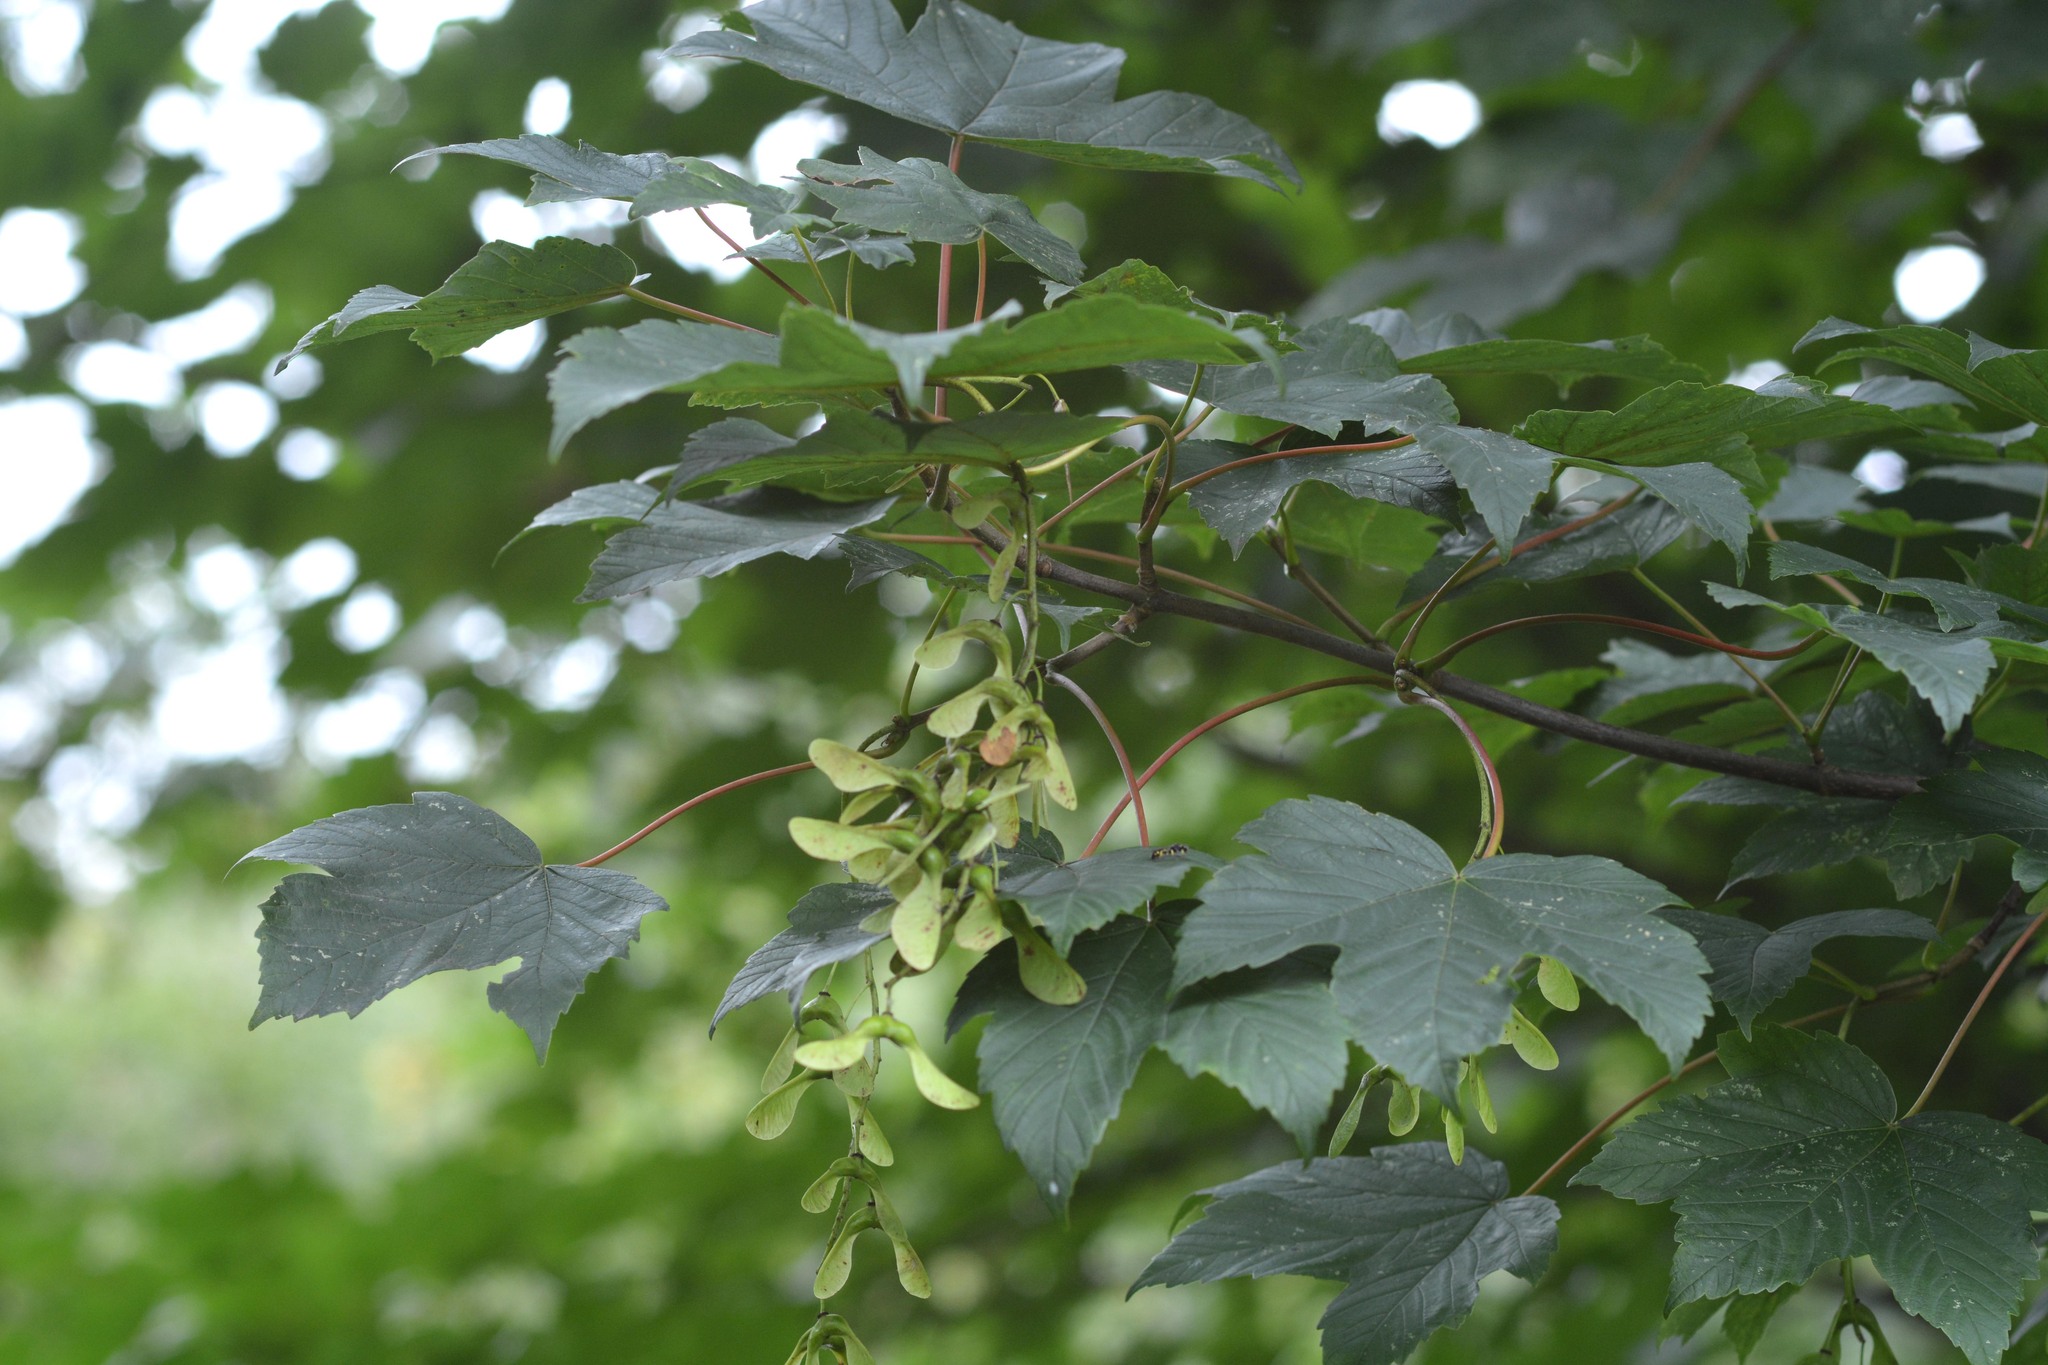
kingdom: Plantae
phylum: Tracheophyta
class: Magnoliopsida
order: Sapindales
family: Sapindaceae
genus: Acer
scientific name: Acer pseudoplatanus
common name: Sycamore
